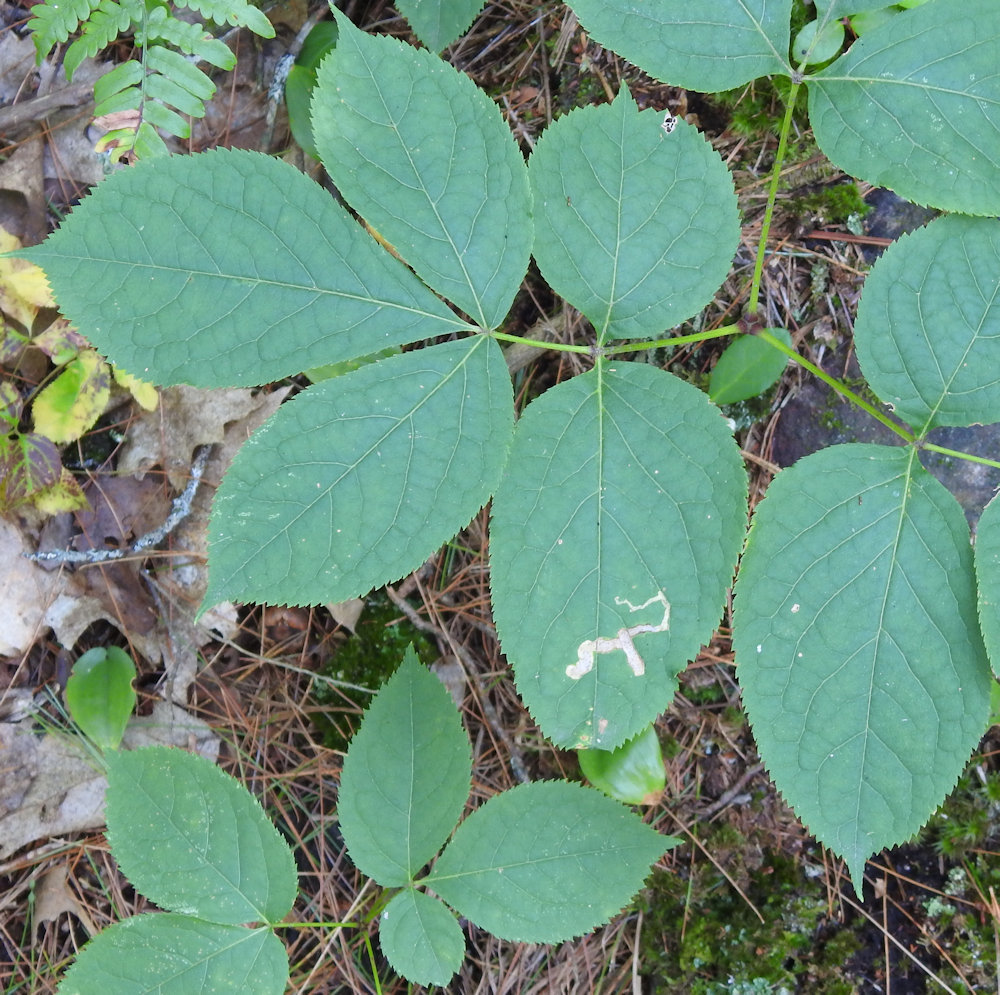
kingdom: Animalia
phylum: Arthropoda
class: Insecta
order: Diptera
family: Agromyzidae
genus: Phytomyza
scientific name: Phytomyza aralivora
